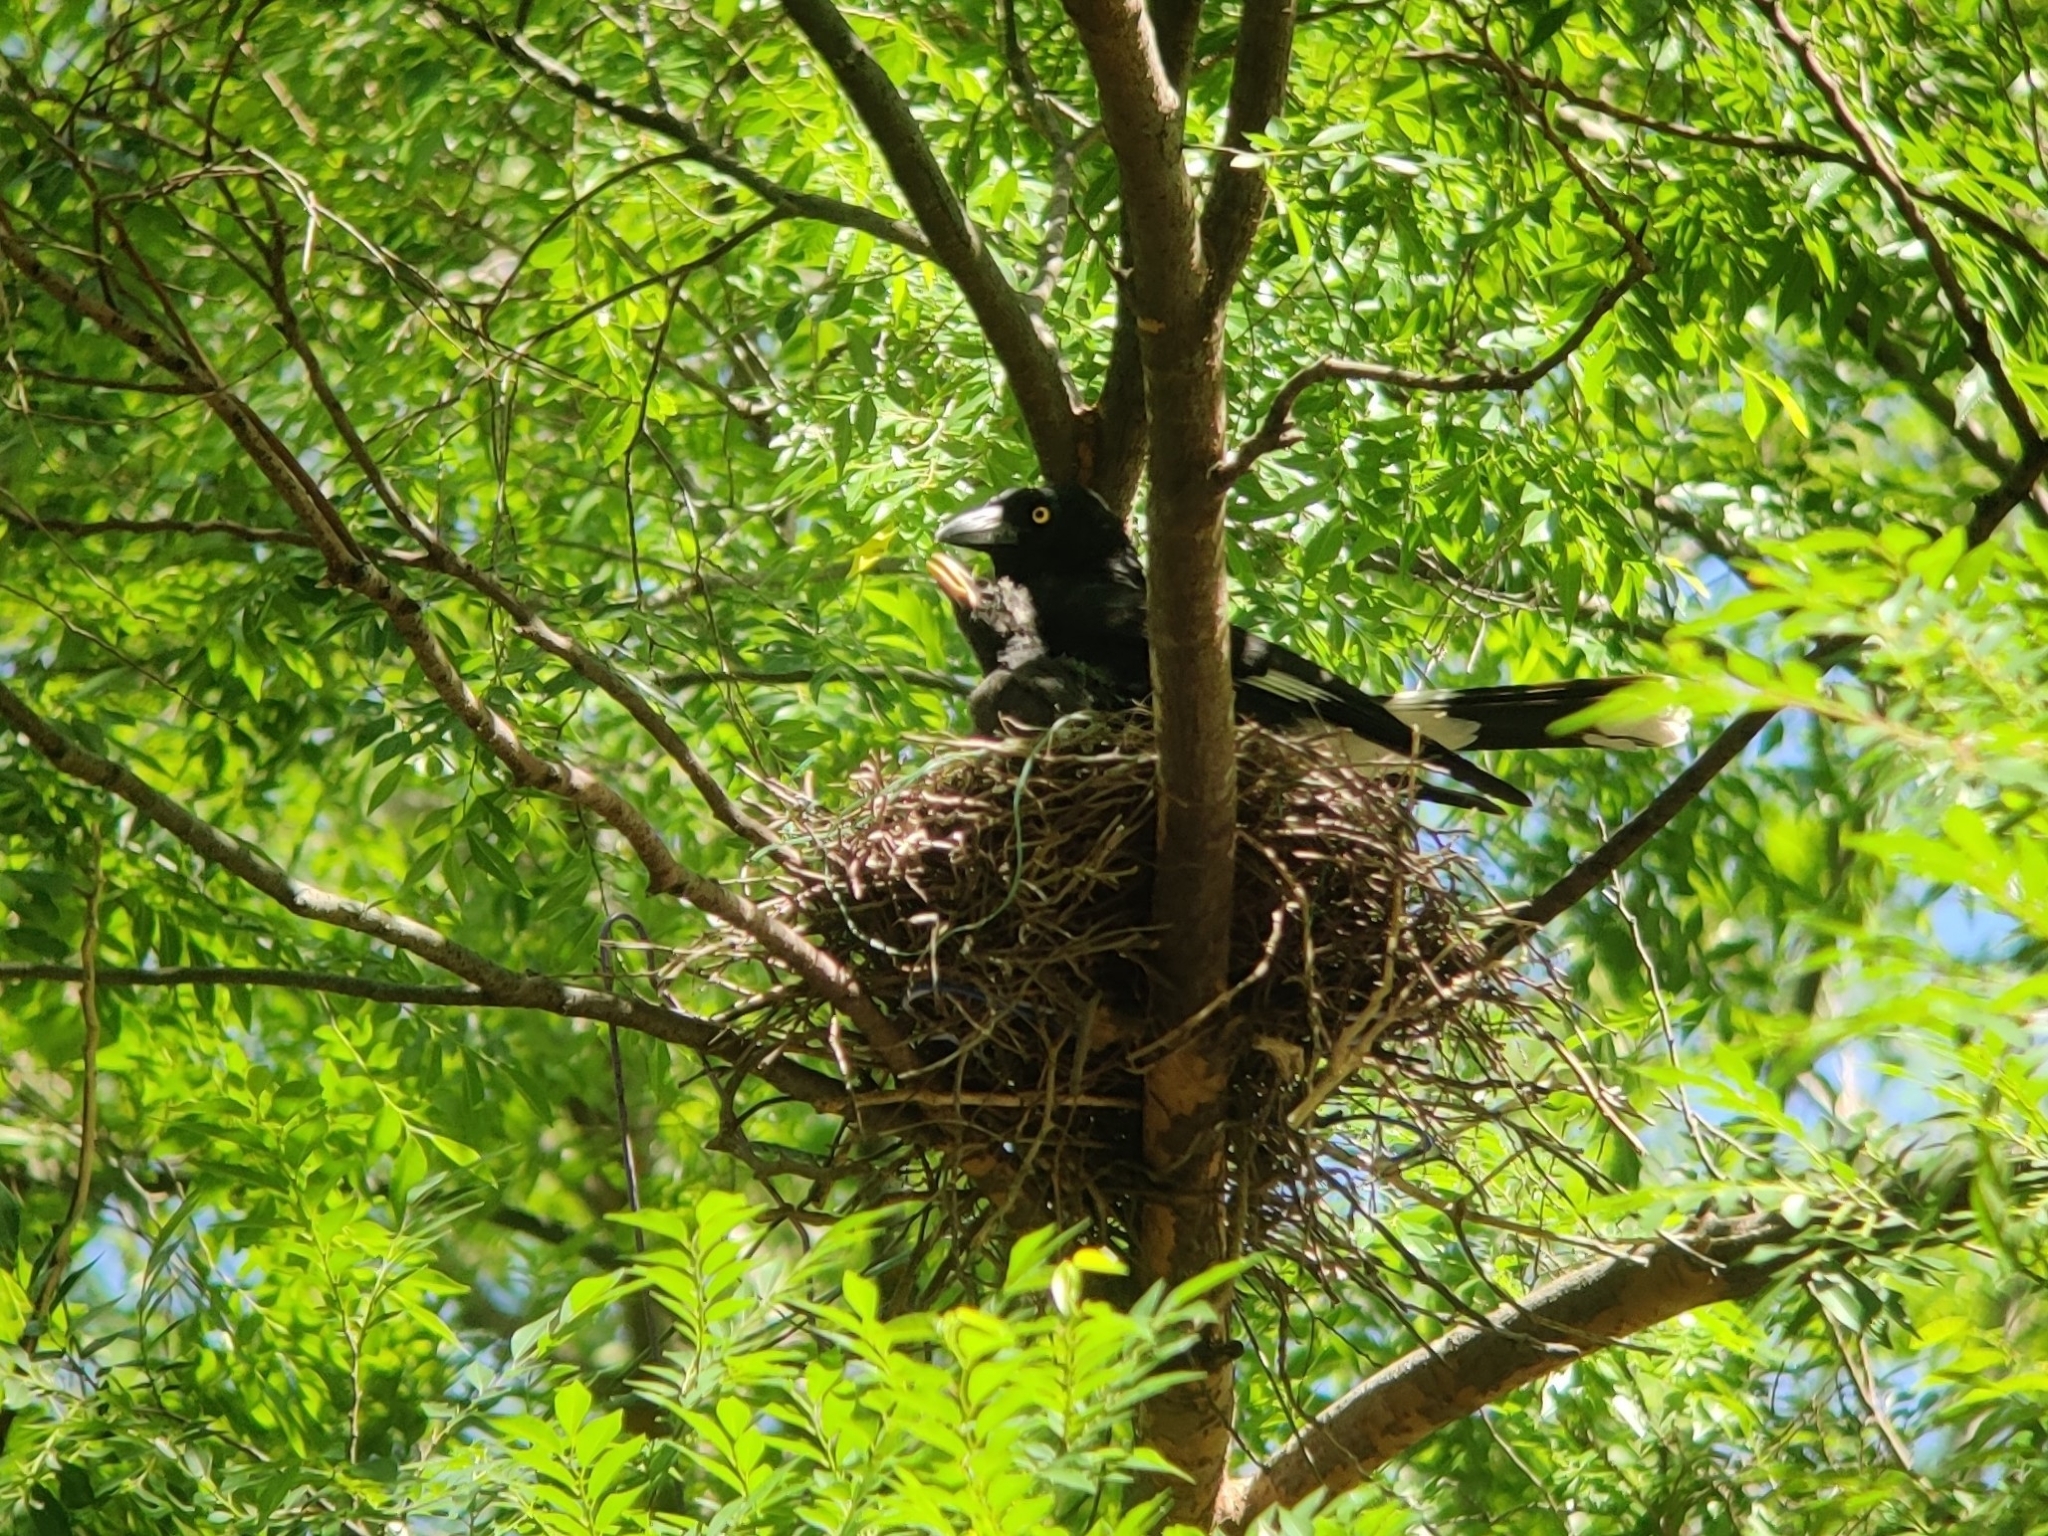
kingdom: Animalia
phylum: Chordata
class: Aves
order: Passeriformes
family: Cracticidae
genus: Strepera
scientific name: Strepera graculina
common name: Pied currawong
